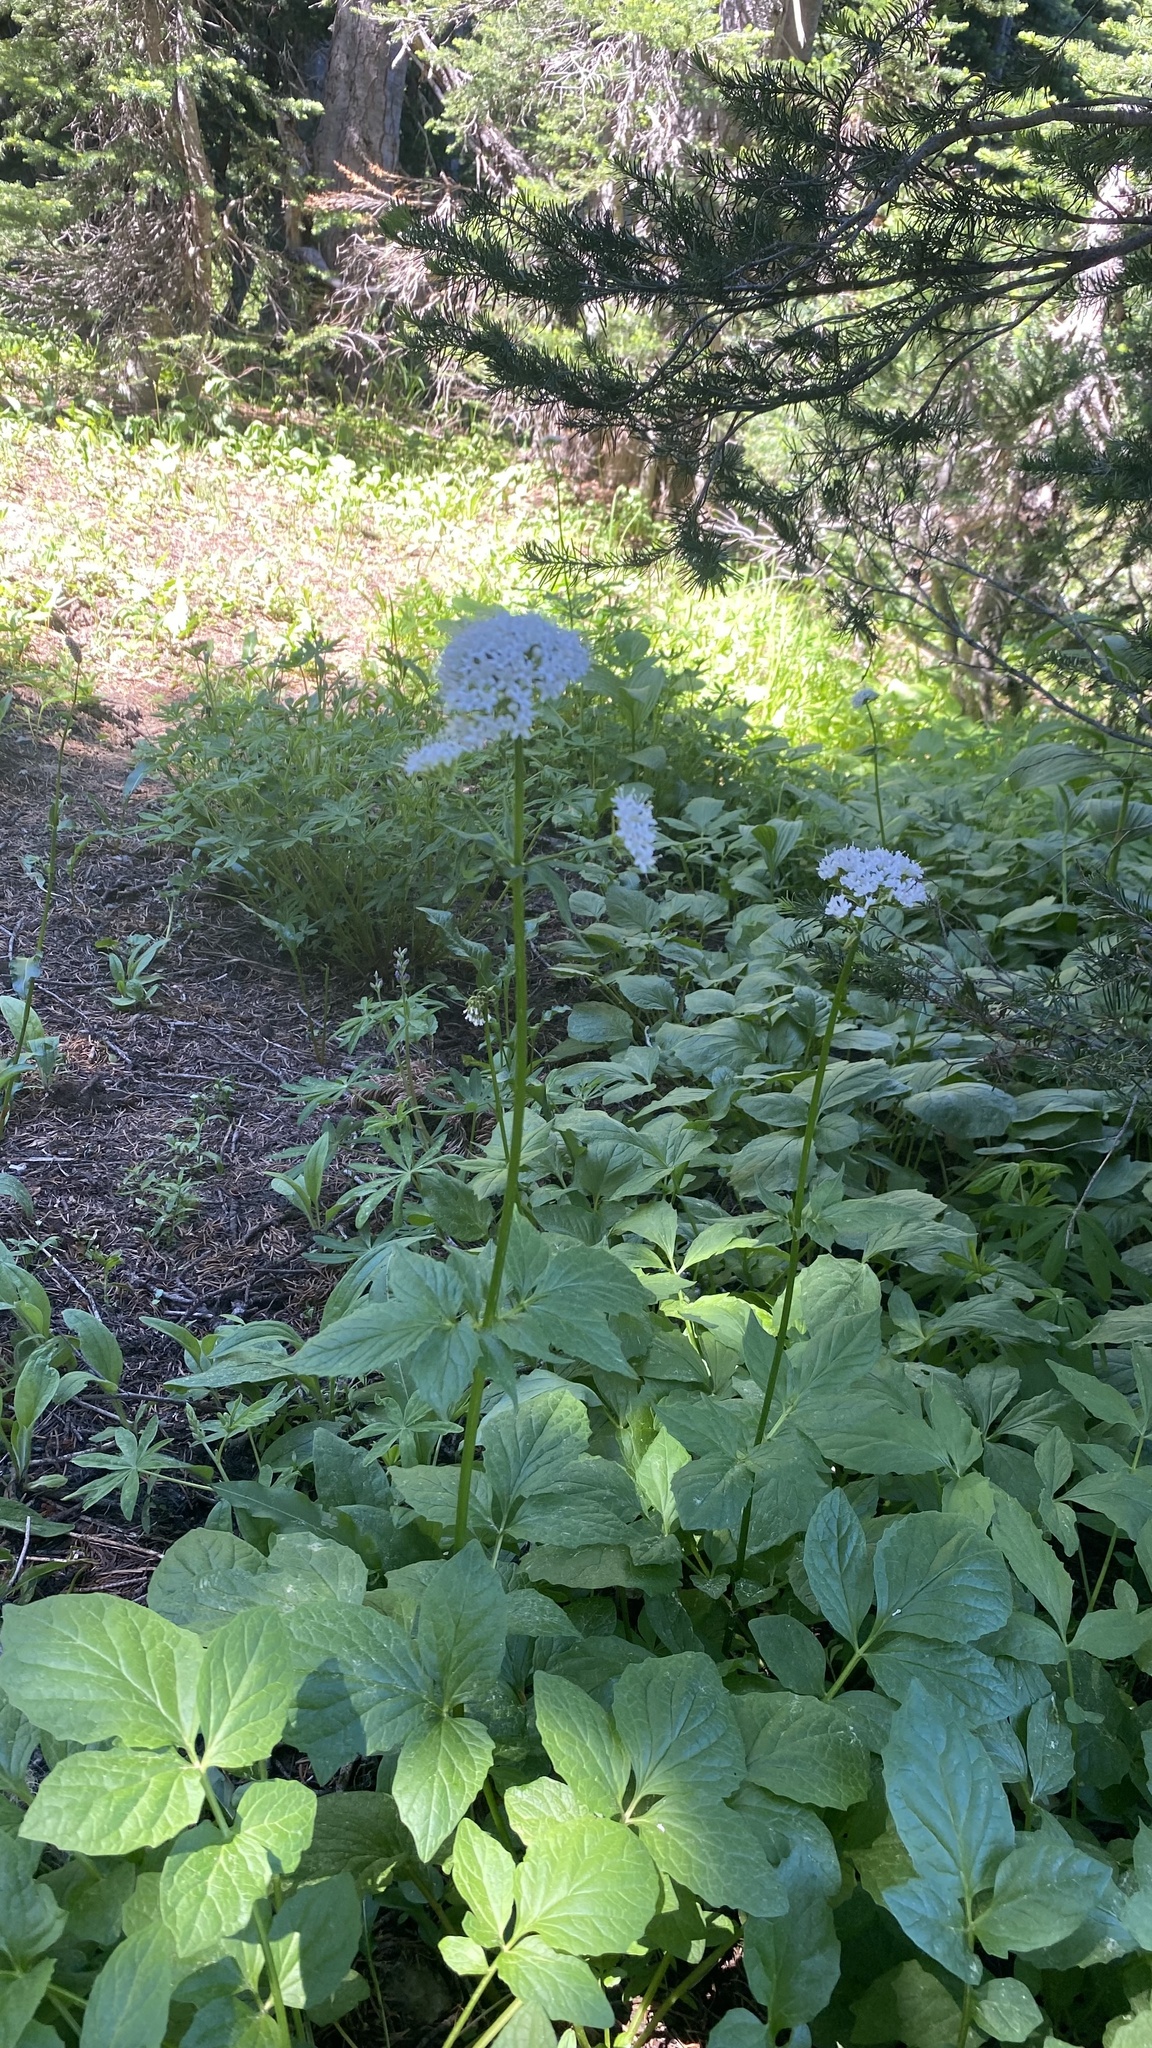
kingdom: Plantae
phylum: Tracheophyta
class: Magnoliopsida
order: Dipsacales
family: Caprifoliaceae
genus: Valeriana
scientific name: Valeriana sitchensis
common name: Pacific valerian
